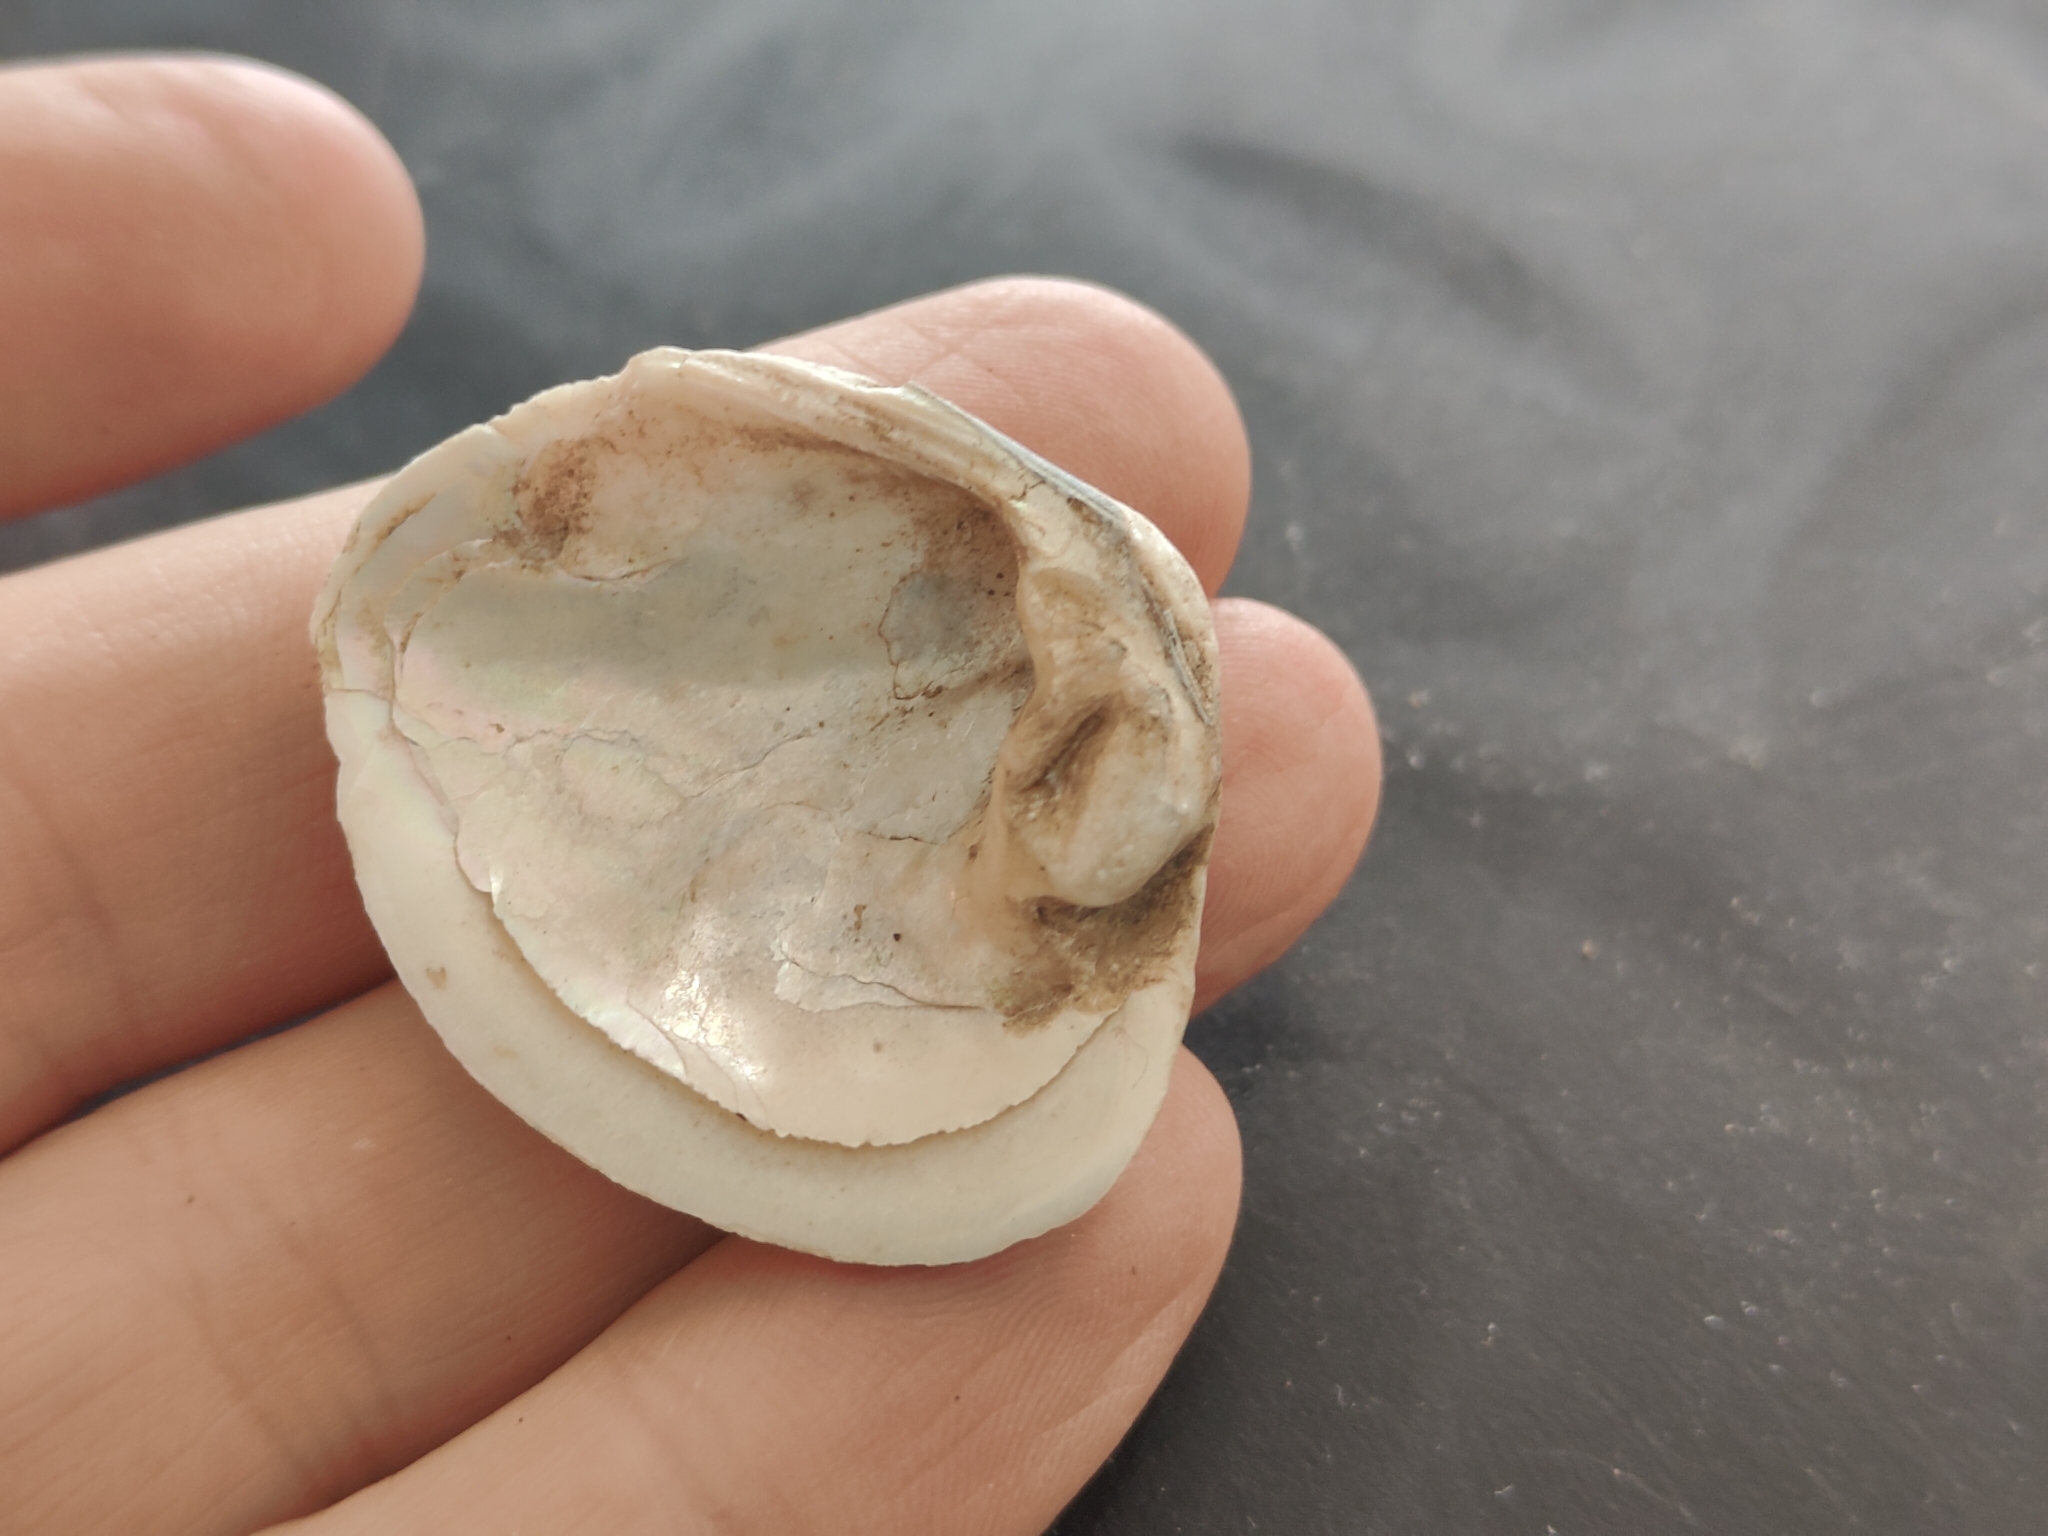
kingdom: Animalia
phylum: Mollusca
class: Bivalvia
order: Unionida
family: Unionidae
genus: Cyclonaias
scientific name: Cyclonaias pustulosa
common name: Pimpleback
